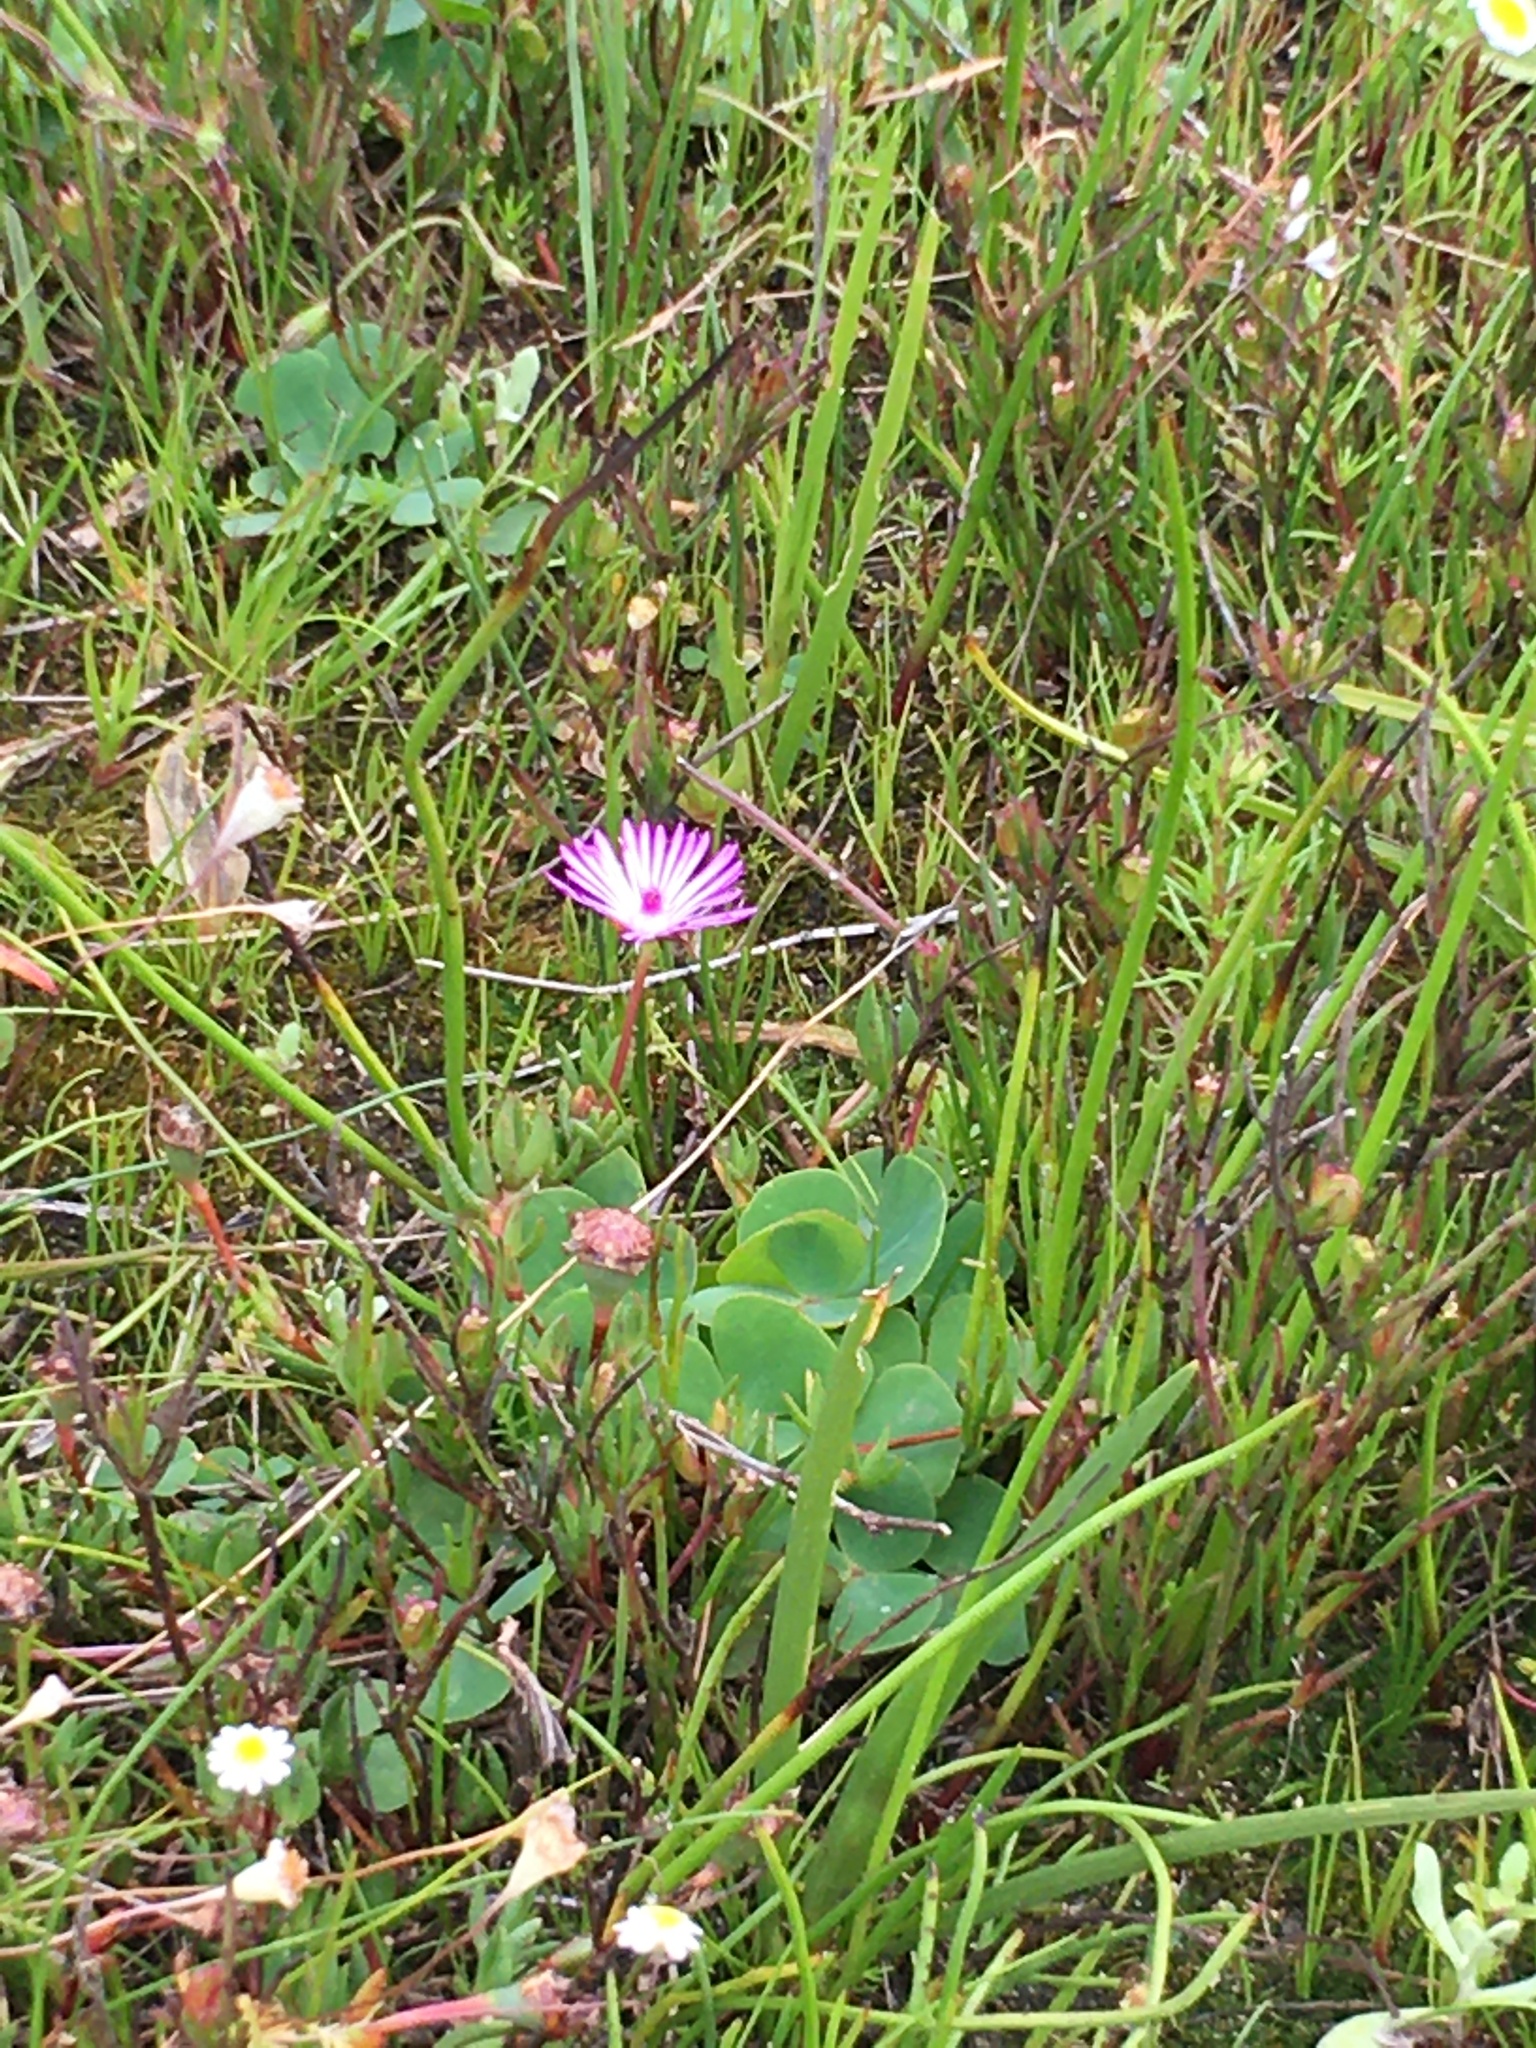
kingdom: Plantae
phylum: Tracheophyta
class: Magnoliopsida
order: Caryophyllales
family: Aizoaceae
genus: Lampranthus
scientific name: Lampranthus filicaulis
